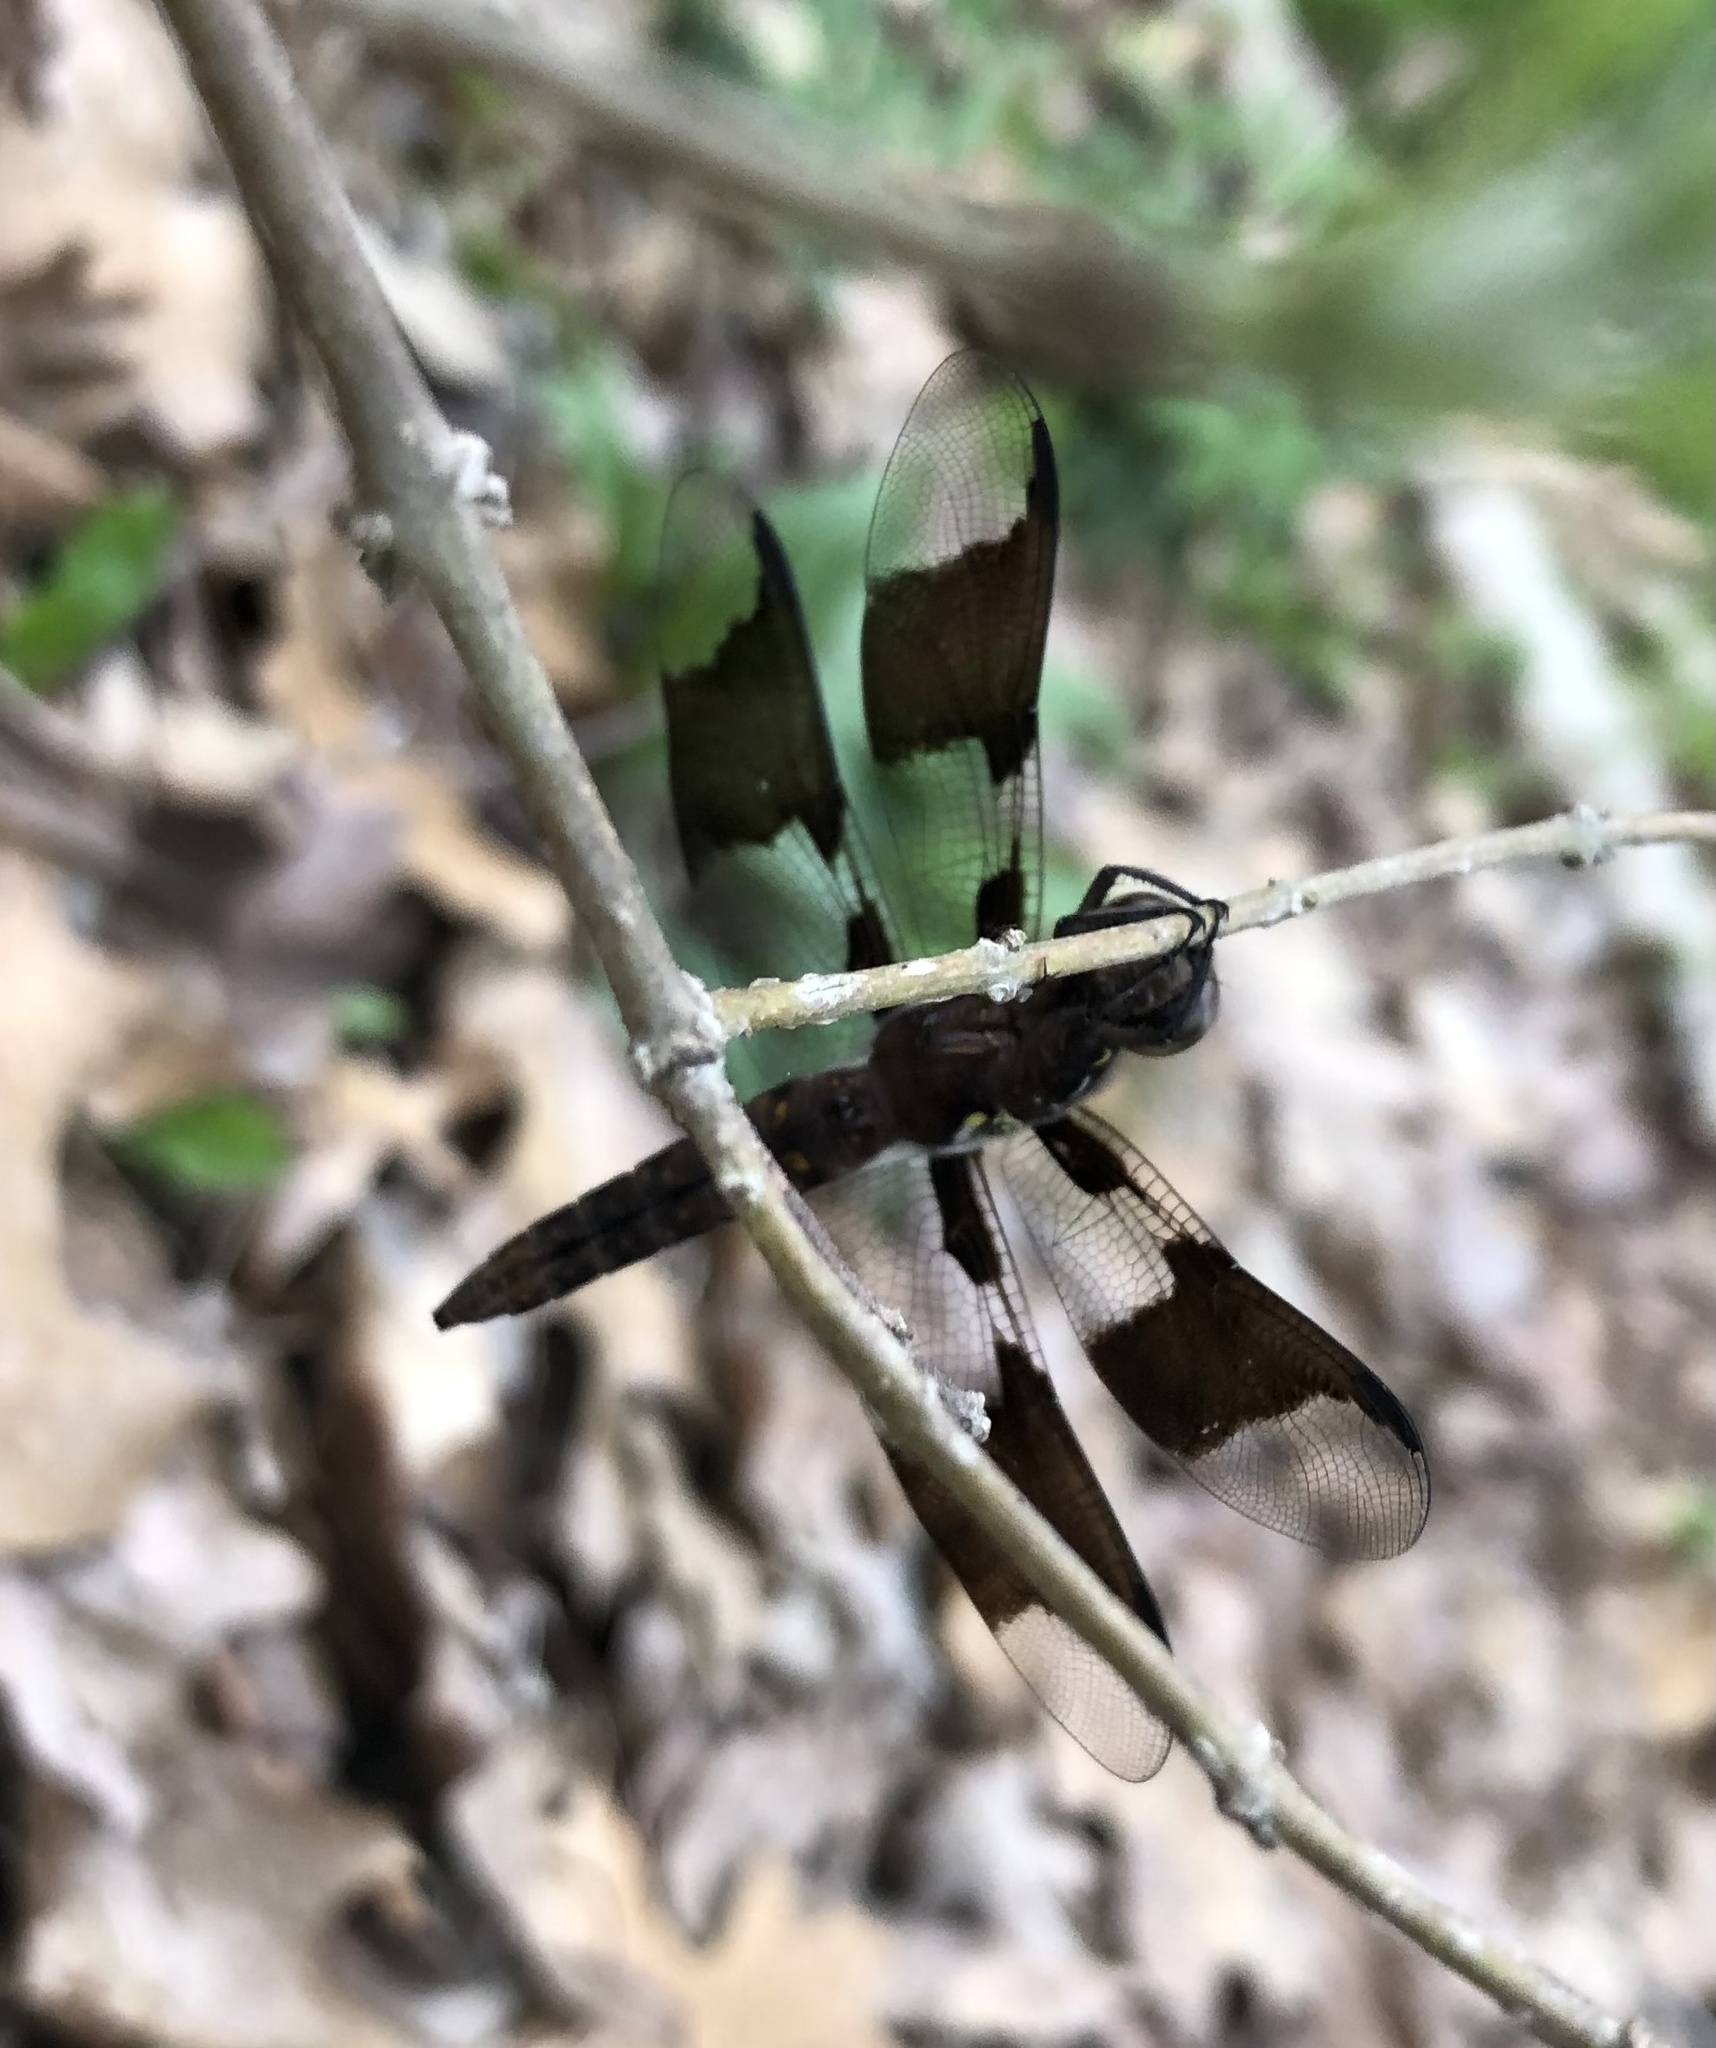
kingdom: Animalia
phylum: Arthropoda
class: Insecta
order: Odonata
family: Libellulidae
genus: Plathemis
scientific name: Plathemis lydia
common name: Common whitetail
